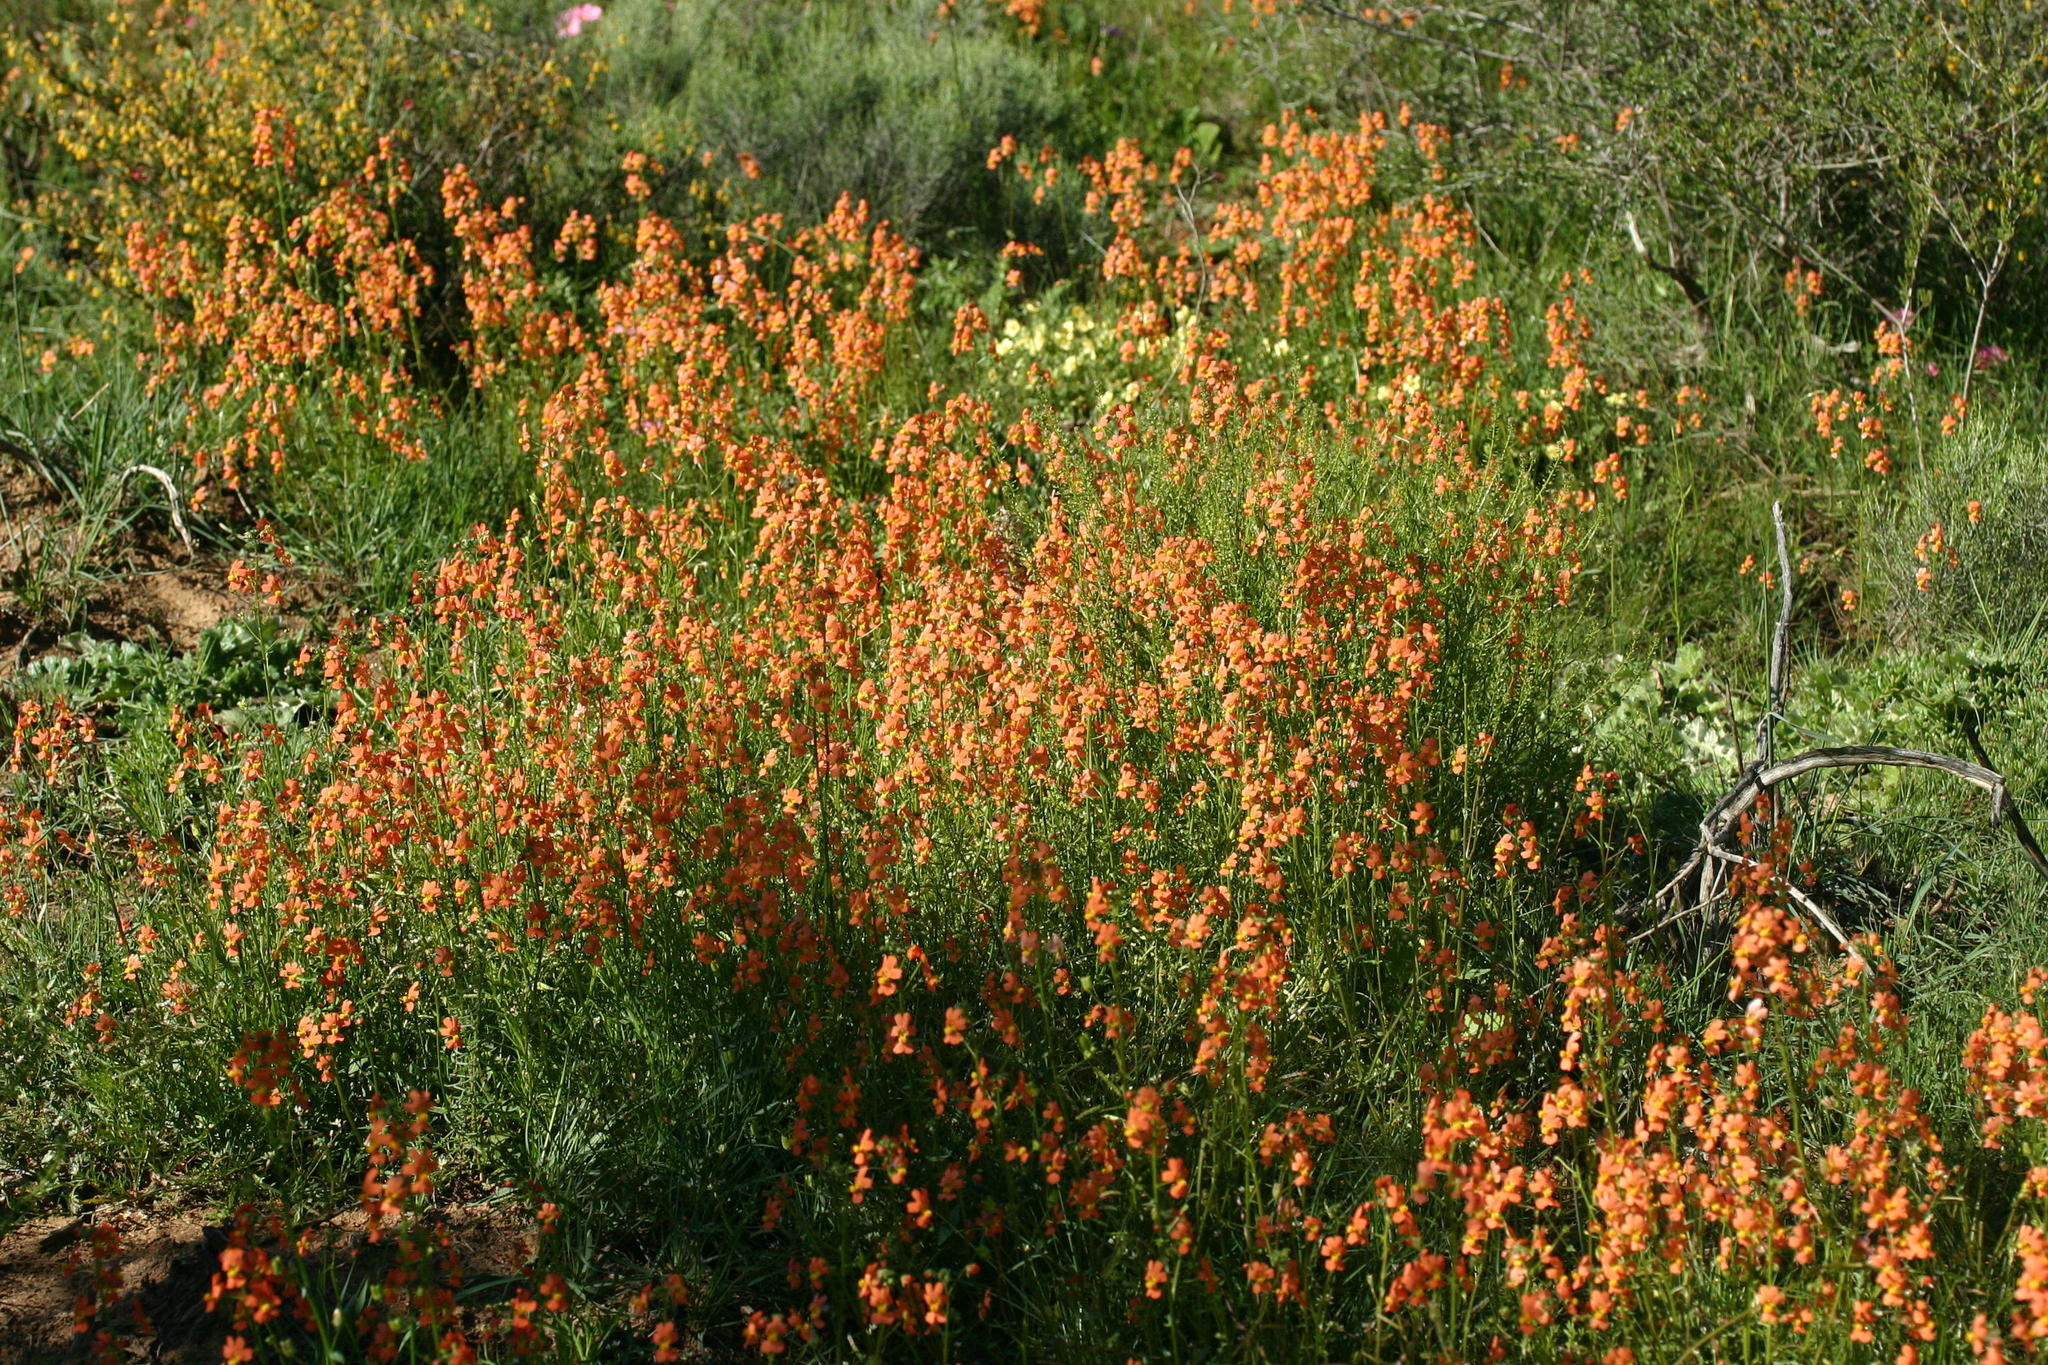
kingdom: Plantae
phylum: Tracheophyta
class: Magnoliopsida
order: Lamiales
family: Scrophulariaceae
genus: Nemesia
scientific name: Nemesia pageae
